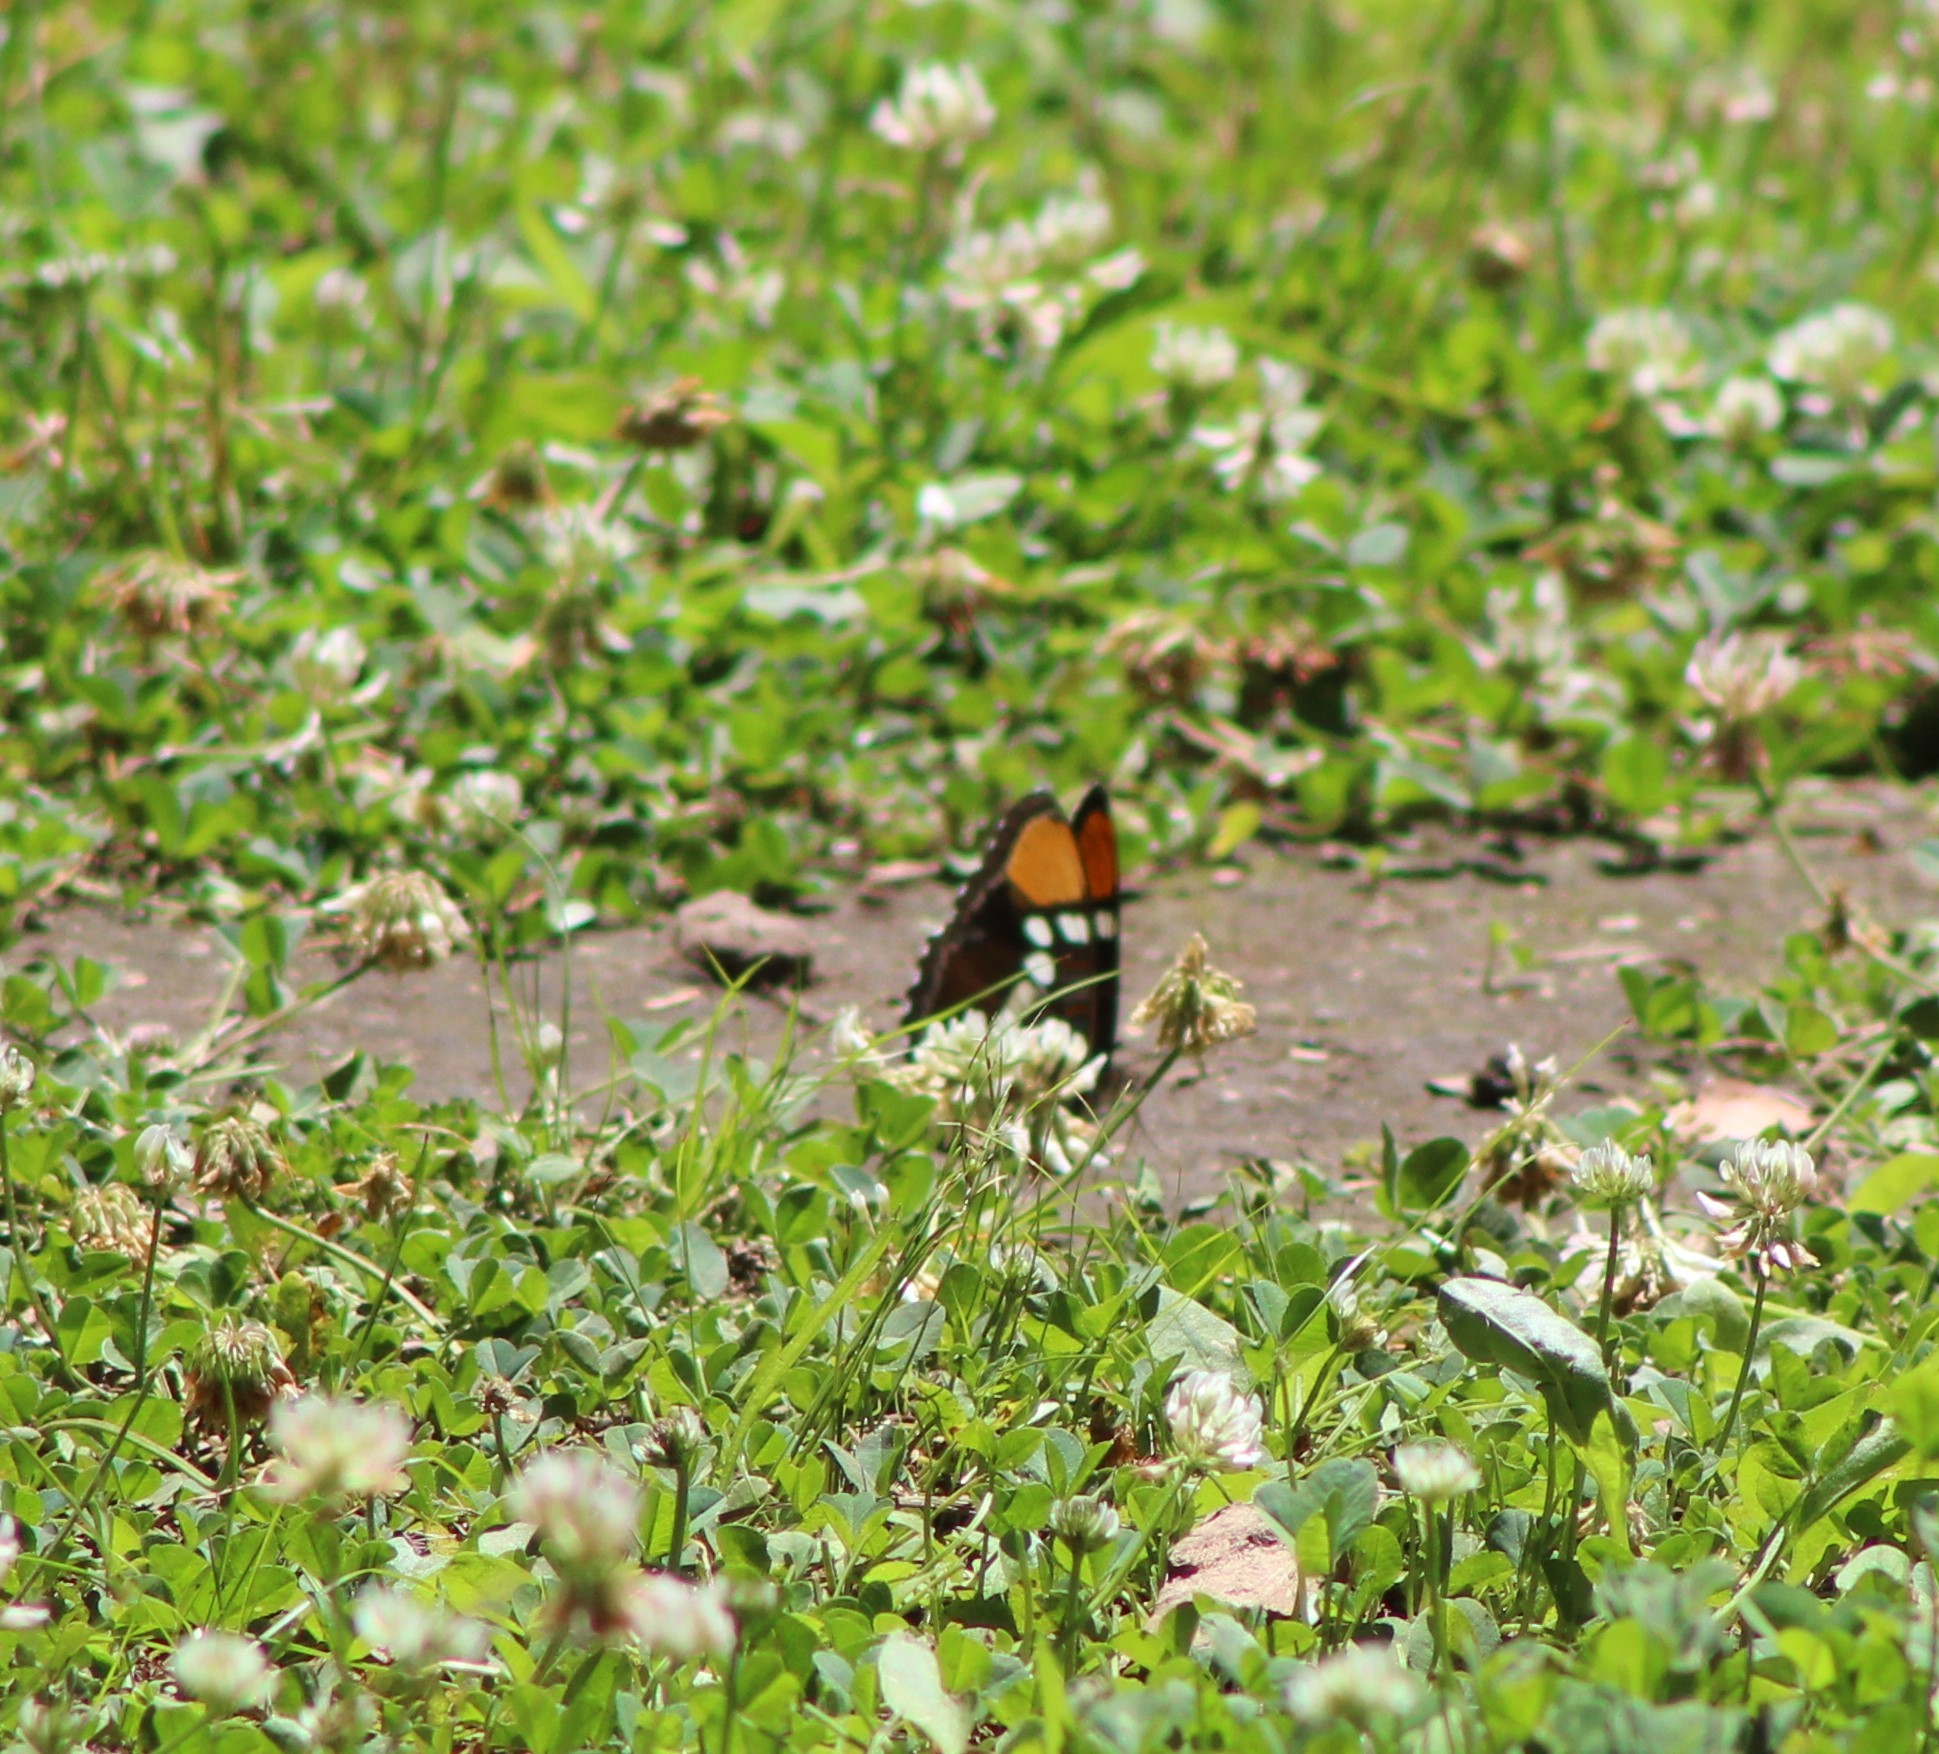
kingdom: Animalia
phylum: Arthropoda
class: Insecta
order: Lepidoptera
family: Nymphalidae
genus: Limenitis
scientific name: Limenitis bredowii
